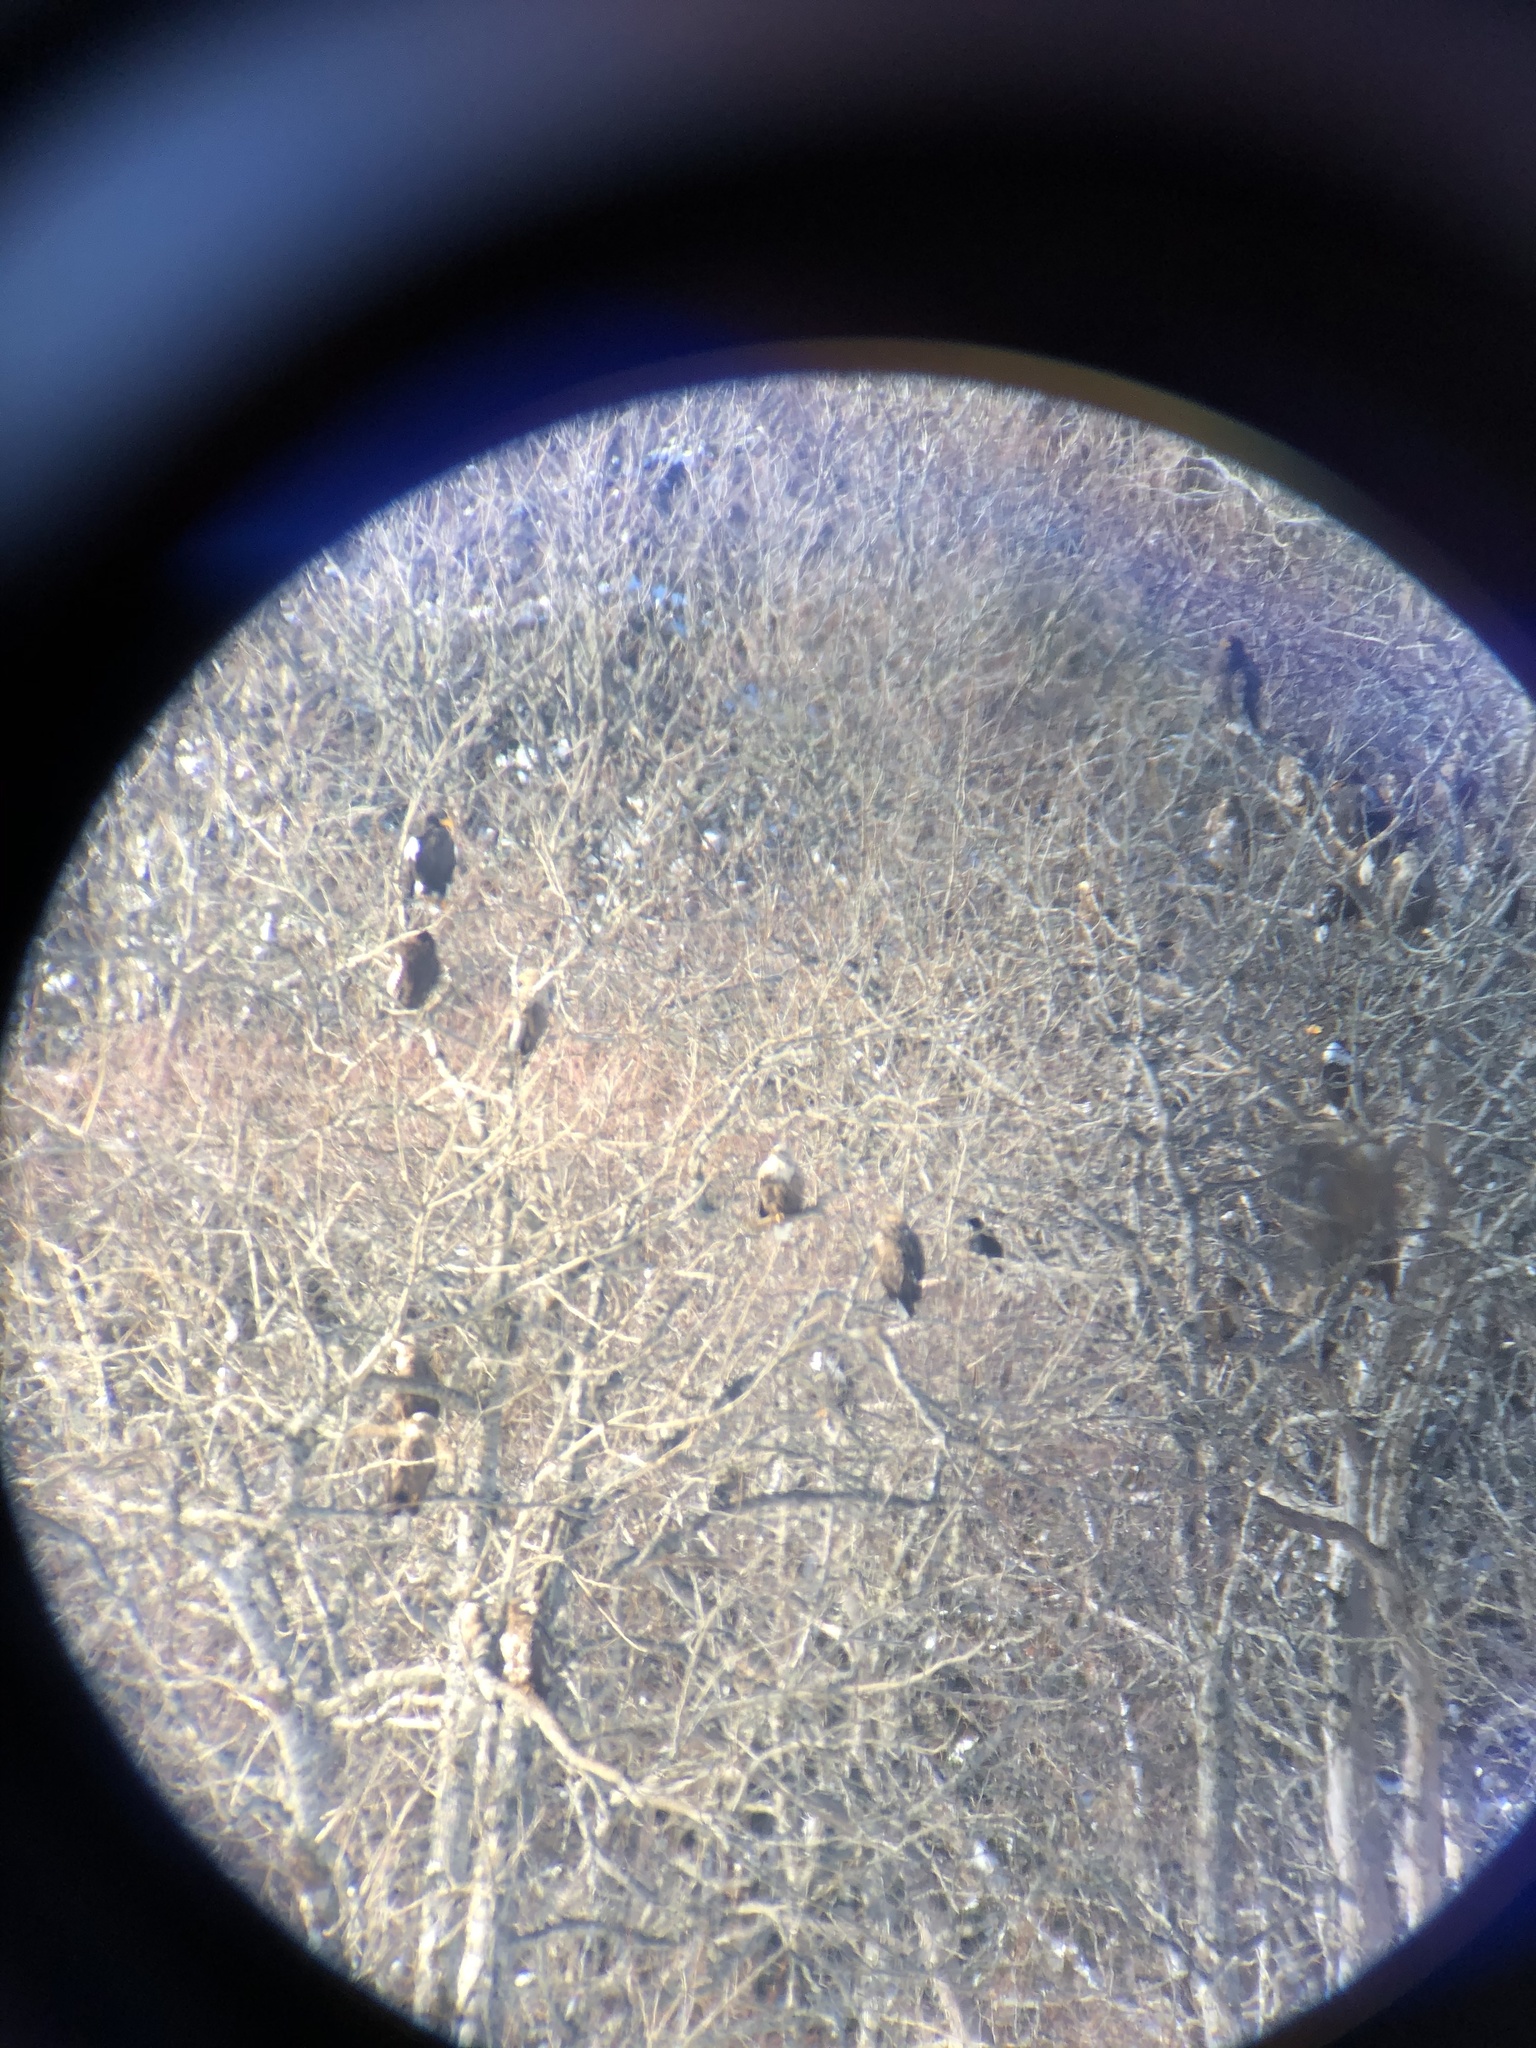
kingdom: Animalia
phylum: Chordata
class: Aves
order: Accipitriformes
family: Accipitridae
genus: Haliaeetus
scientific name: Haliaeetus pelagicus
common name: Steller's sea eagle
